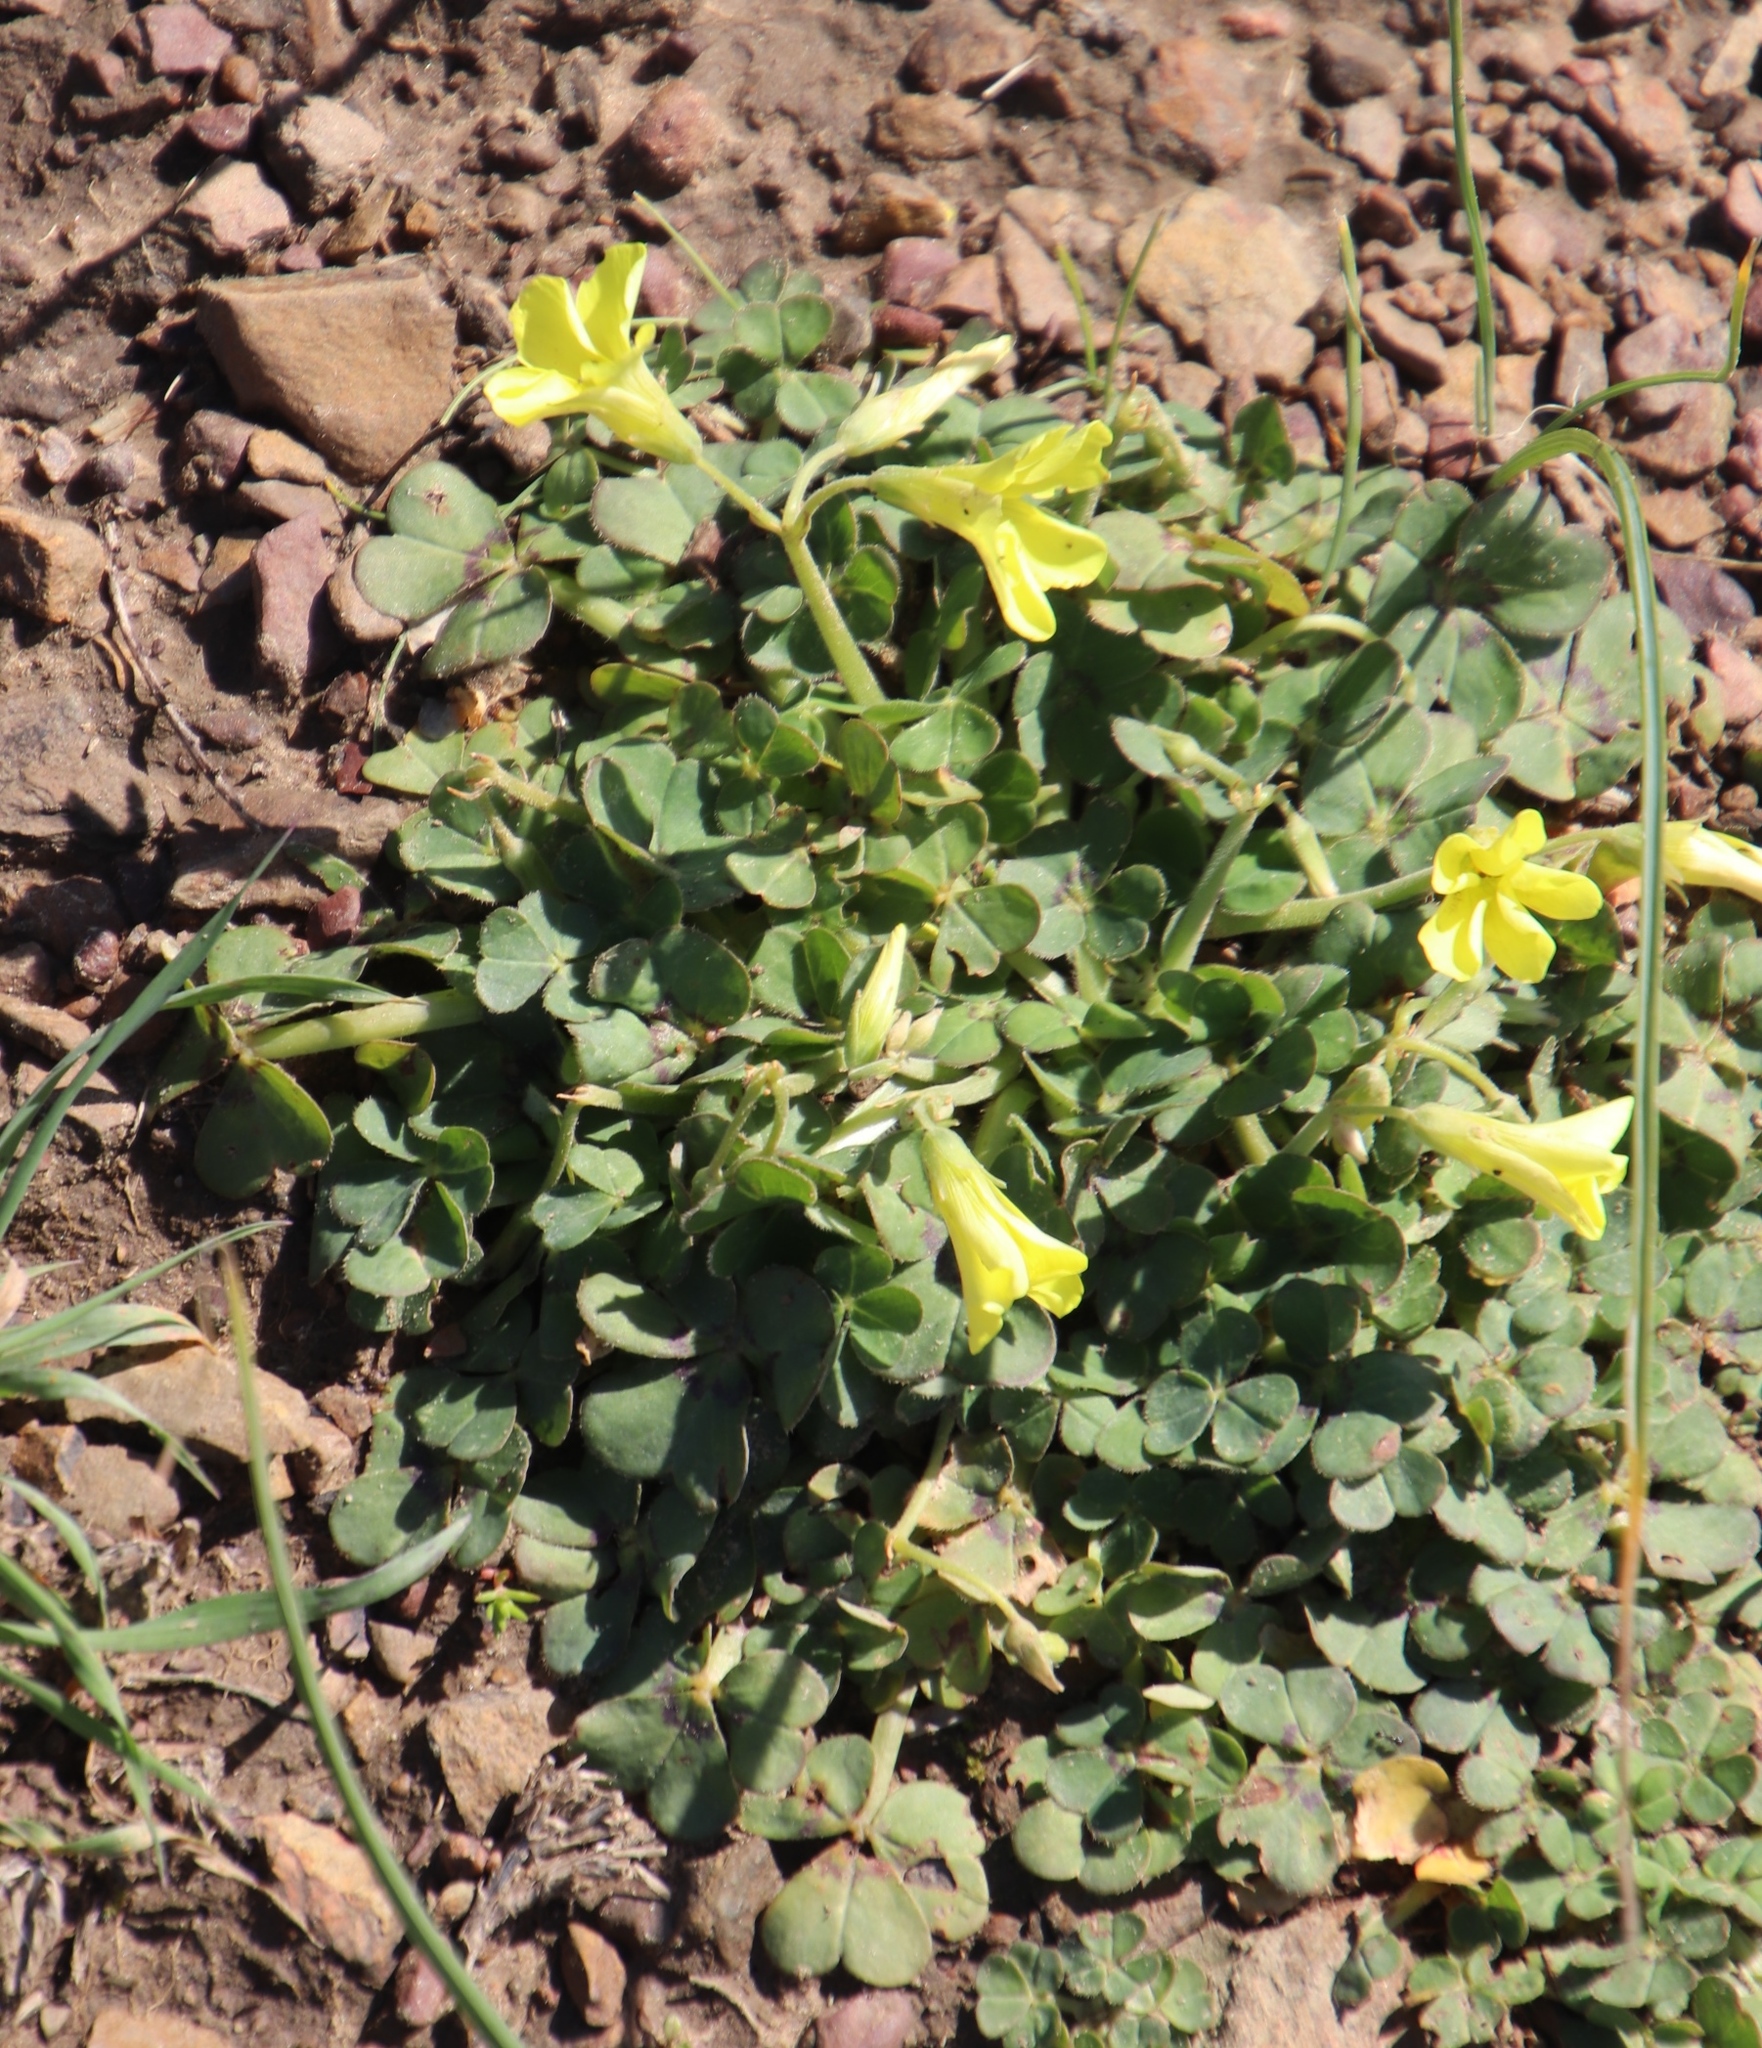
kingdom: Plantae
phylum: Tracheophyta
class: Magnoliopsida
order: Oxalidales
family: Oxalidaceae
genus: Oxalis
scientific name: Oxalis pes-caprae
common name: Bermuda-buttercup
